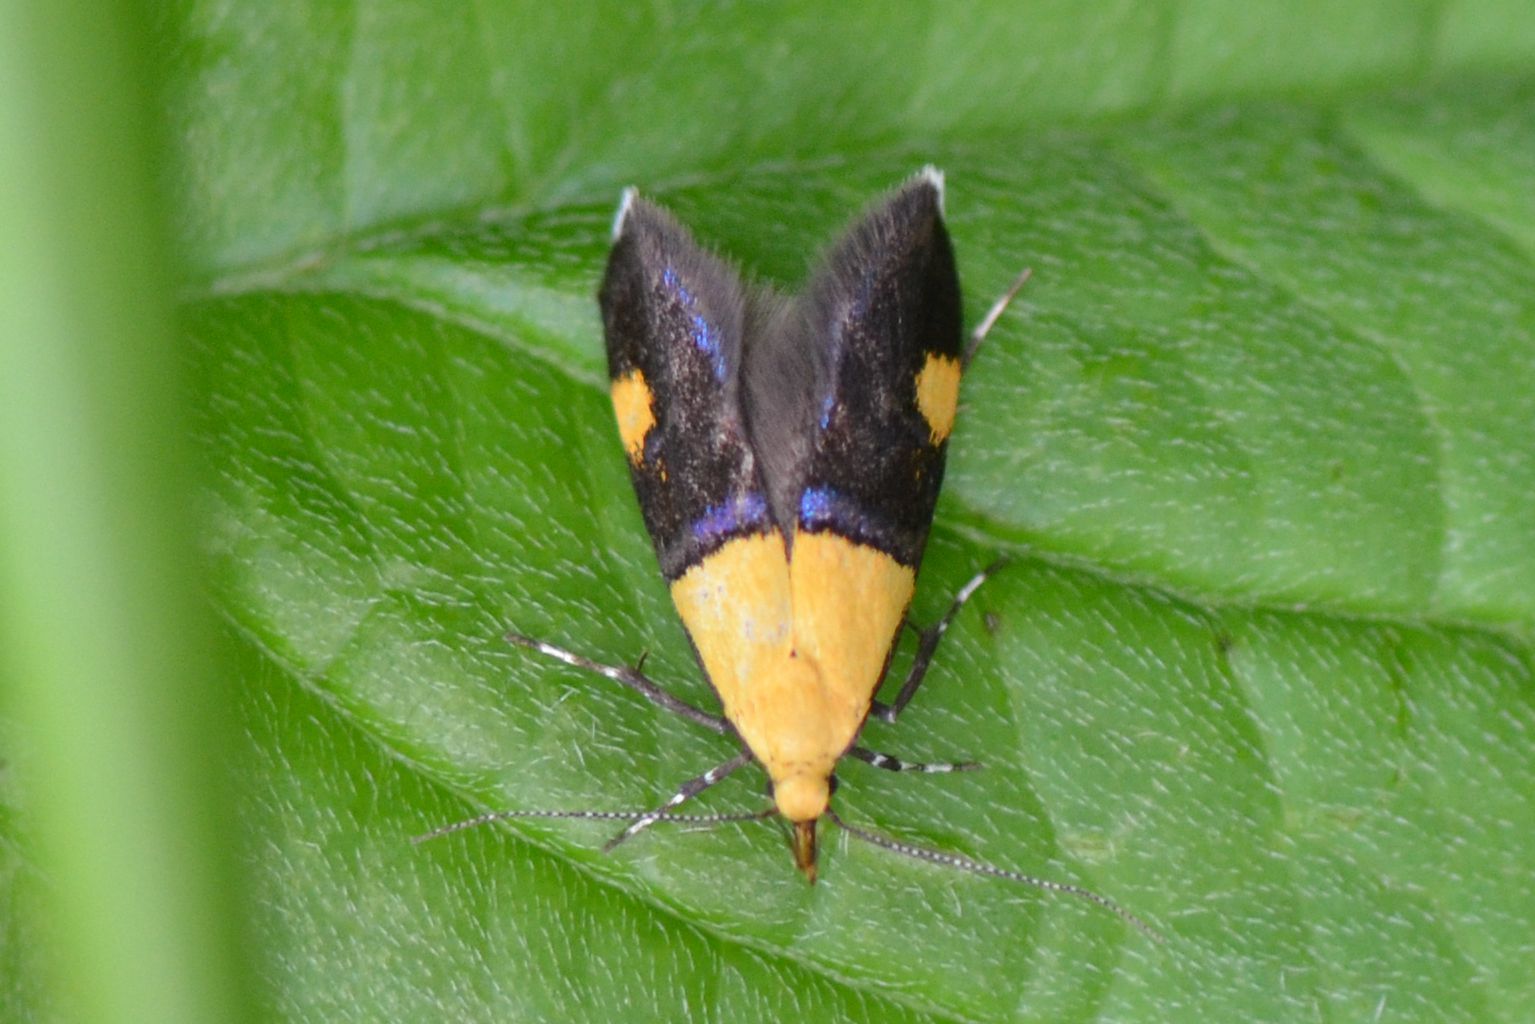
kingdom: Animalia
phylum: Arthropoda
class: Insecta
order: Lepidoptera
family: Oecophoridae
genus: Oecophora
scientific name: Oecophora bractella
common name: Gold-base tubic
